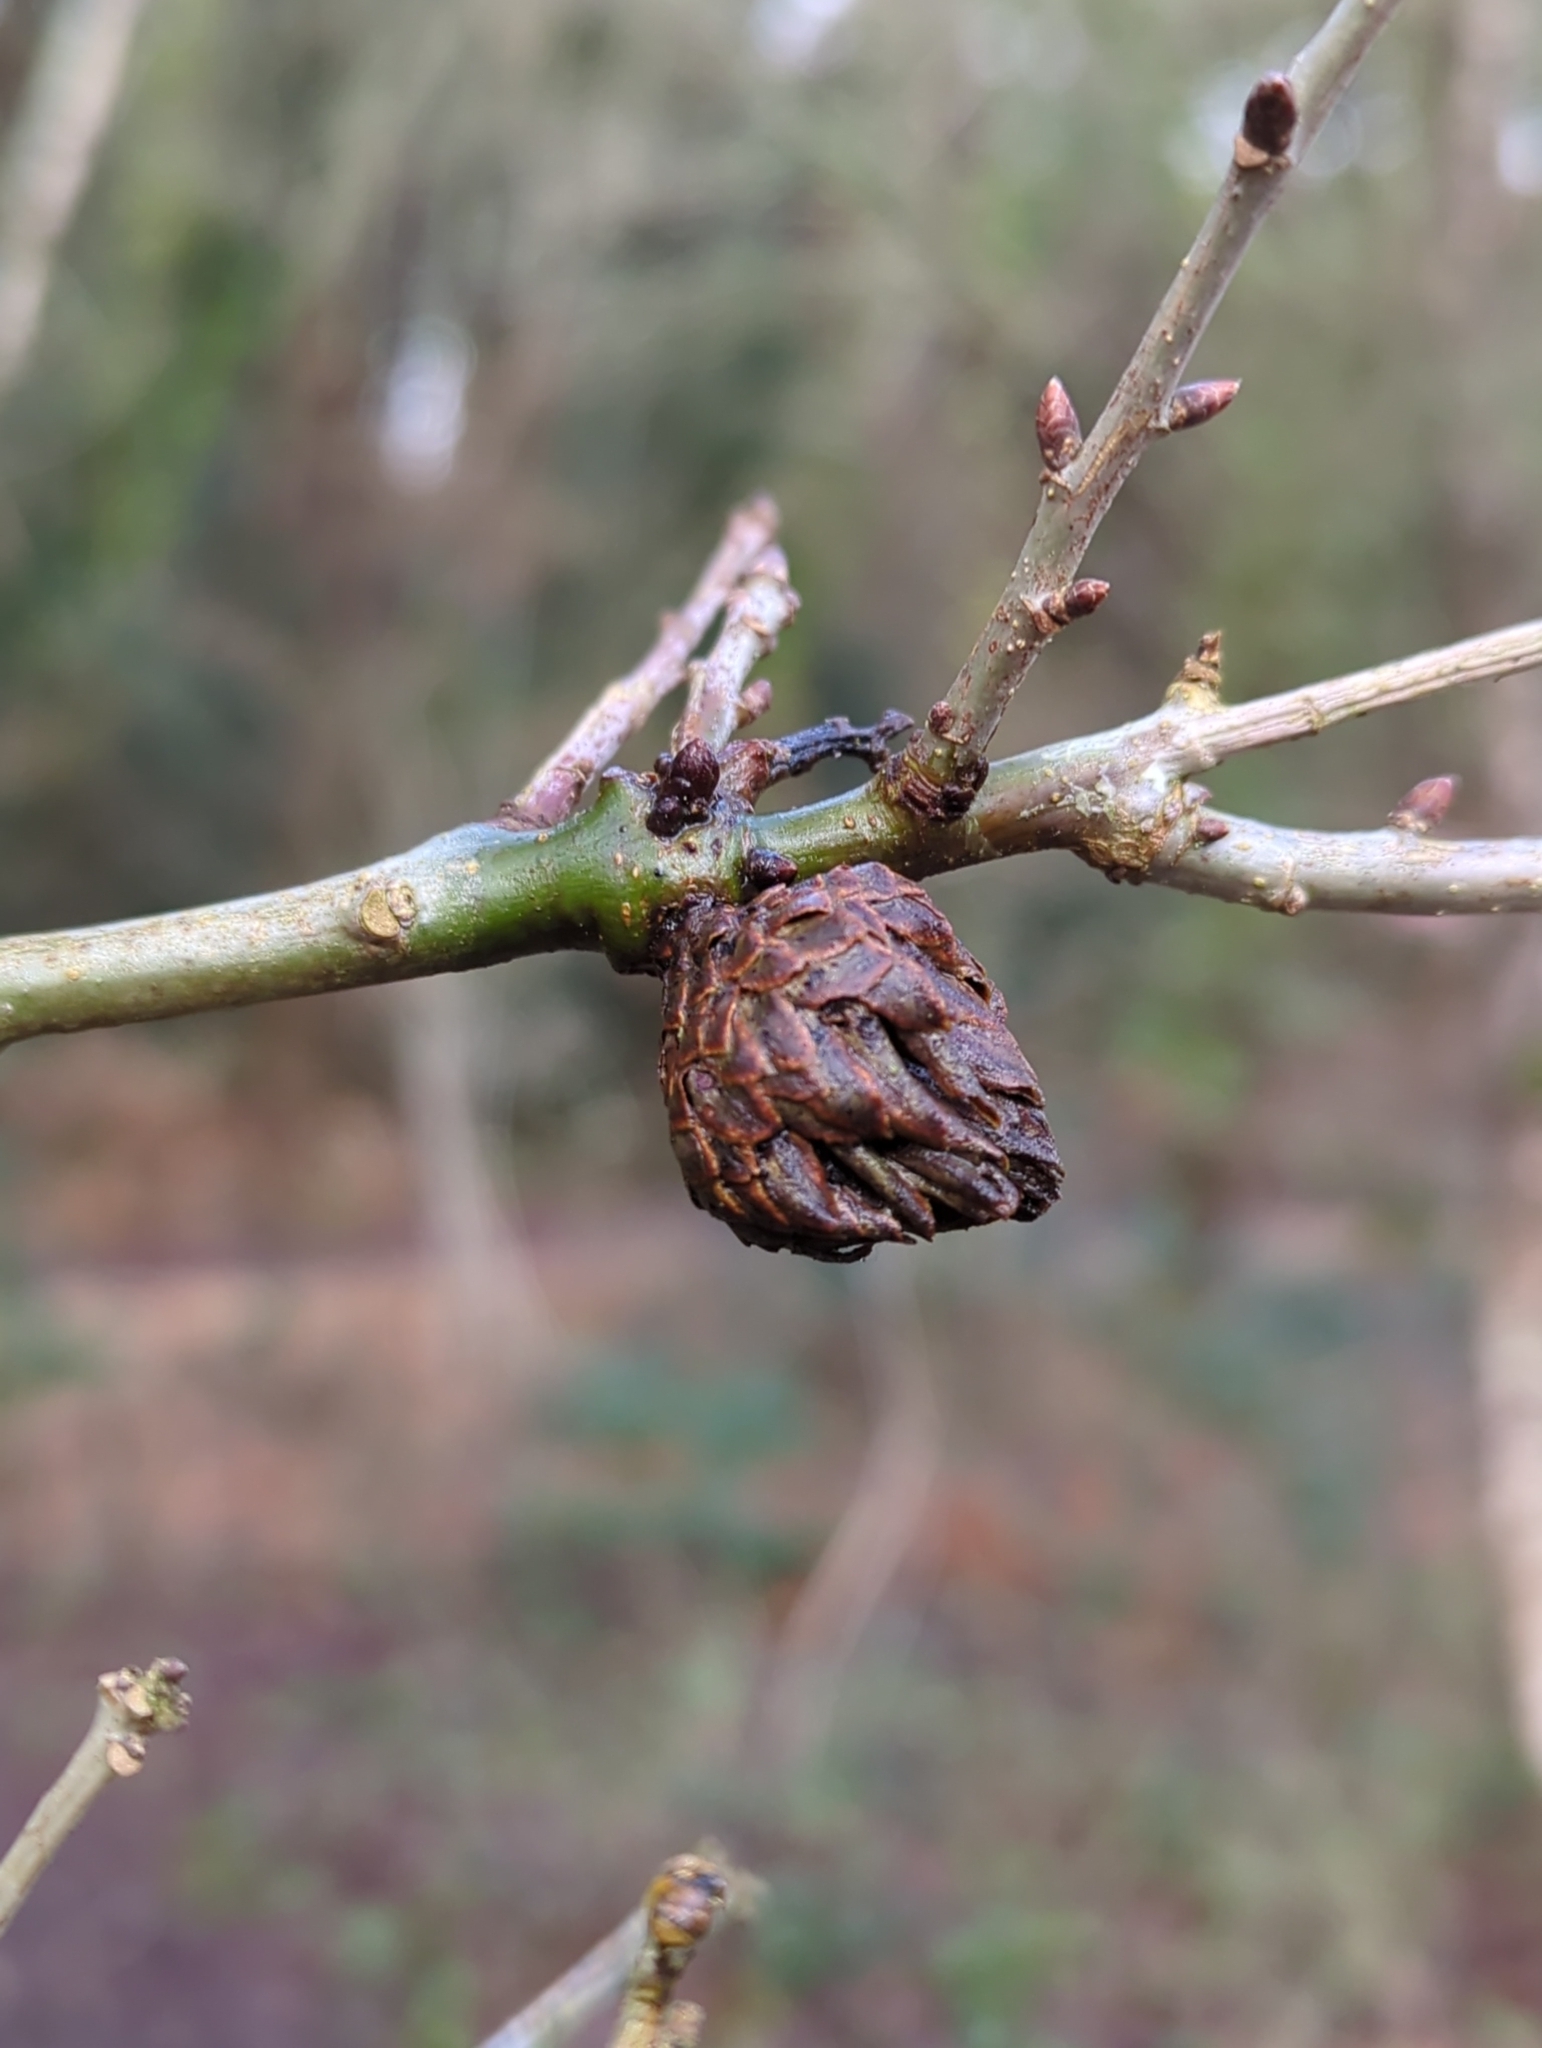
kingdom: Animalia
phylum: Arthropoda
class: Insecta
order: Hymenoptera
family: Cynipidae
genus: Andricus
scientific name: Andricus foecundatrix
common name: Artichoke gall
